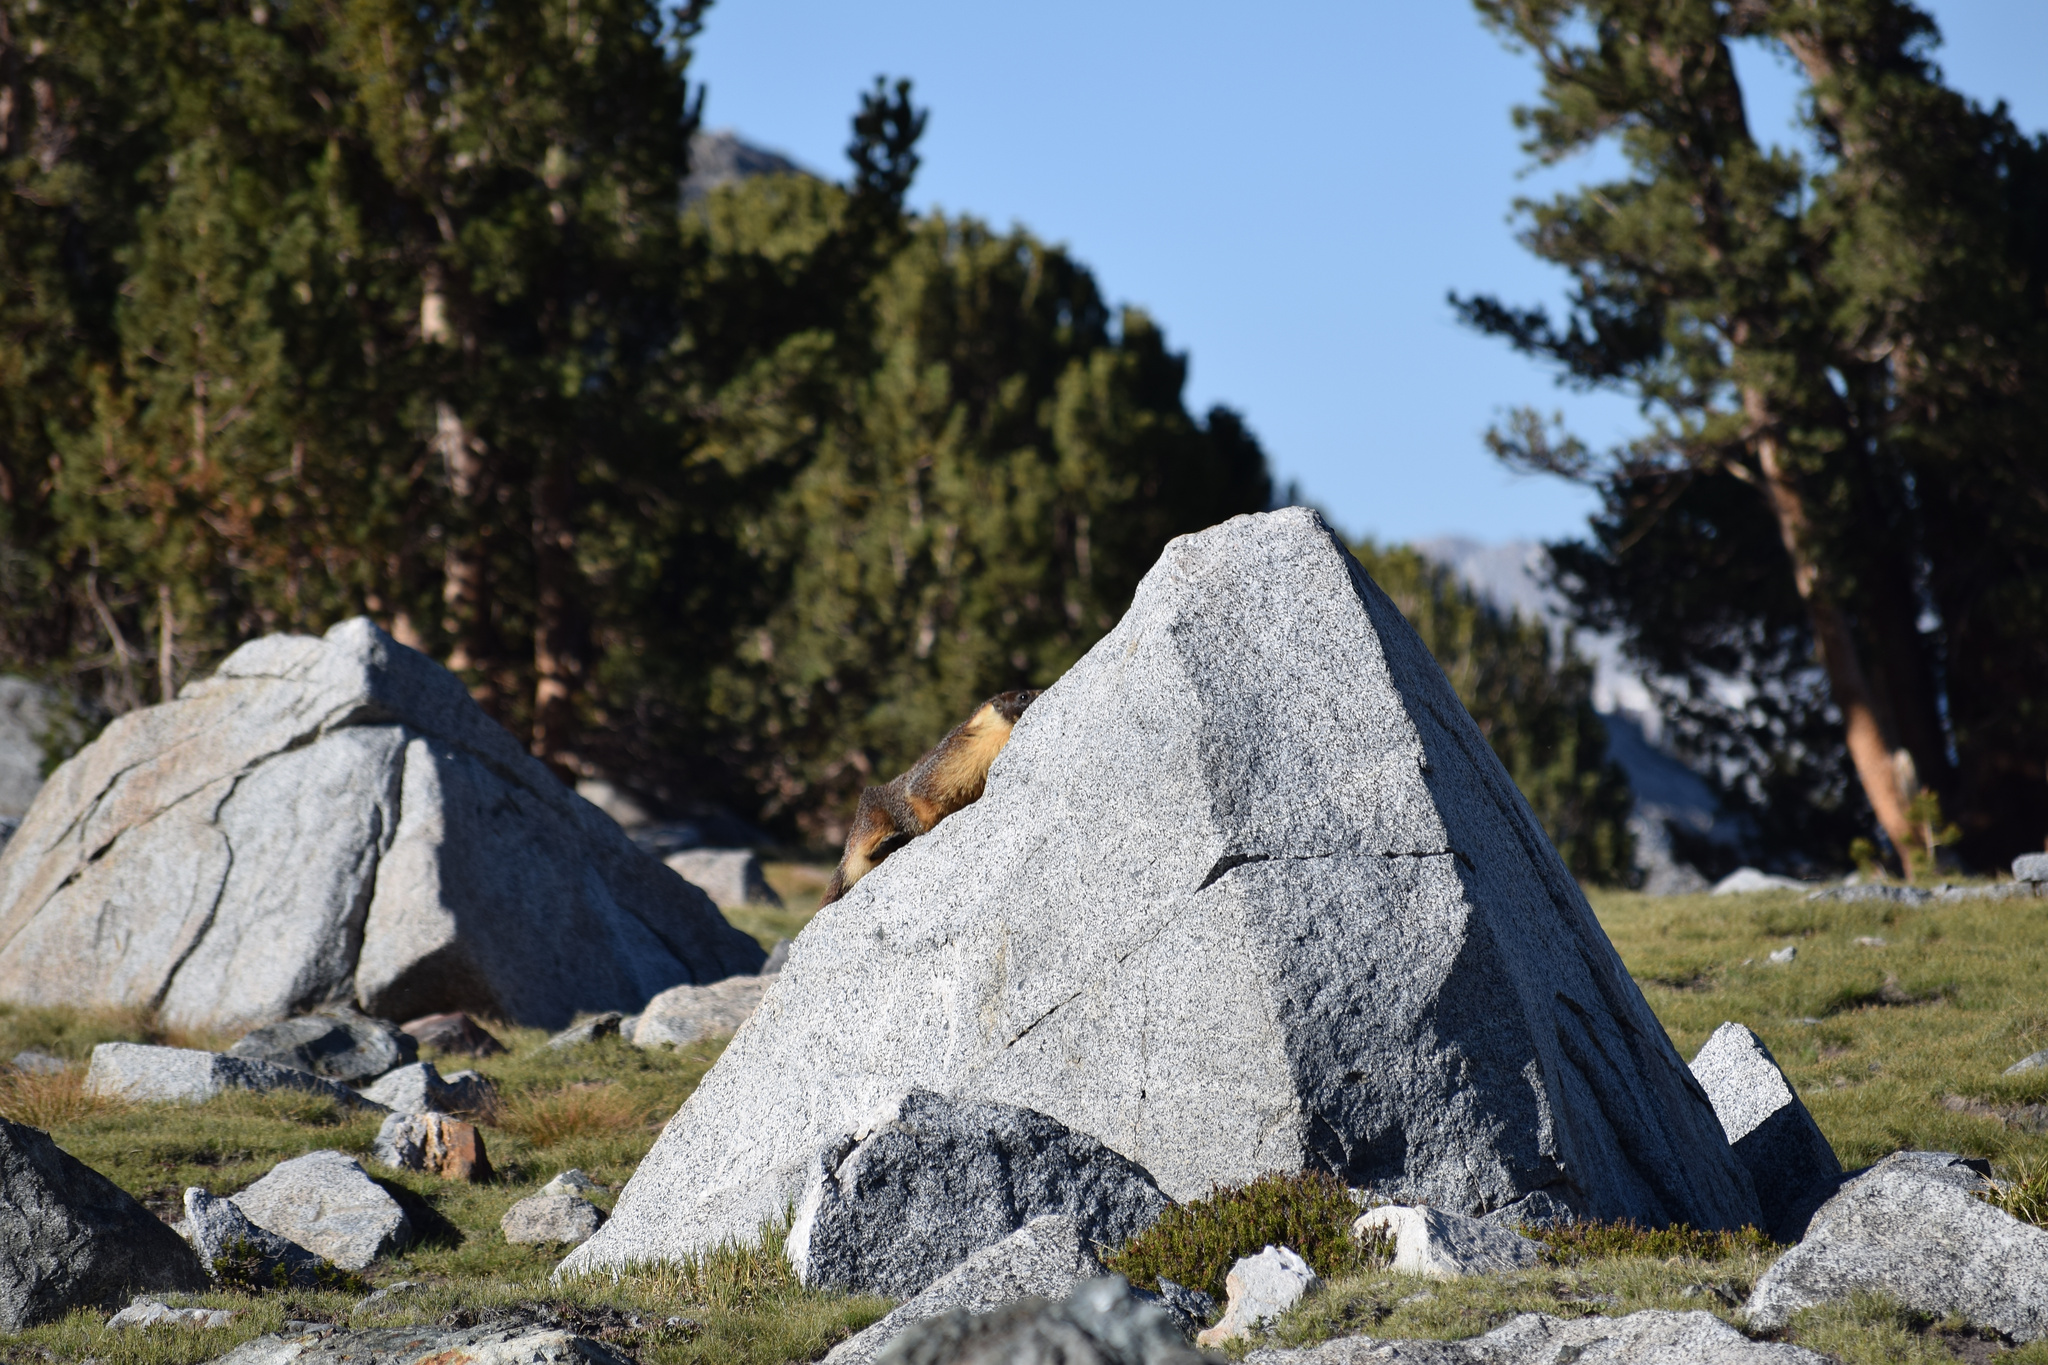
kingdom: Animalia
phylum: Chordata
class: Mammalia
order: Rodentia
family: Sciuridae
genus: Marmota
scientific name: Marmota flaviventris
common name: Yellow-bellied marmot
